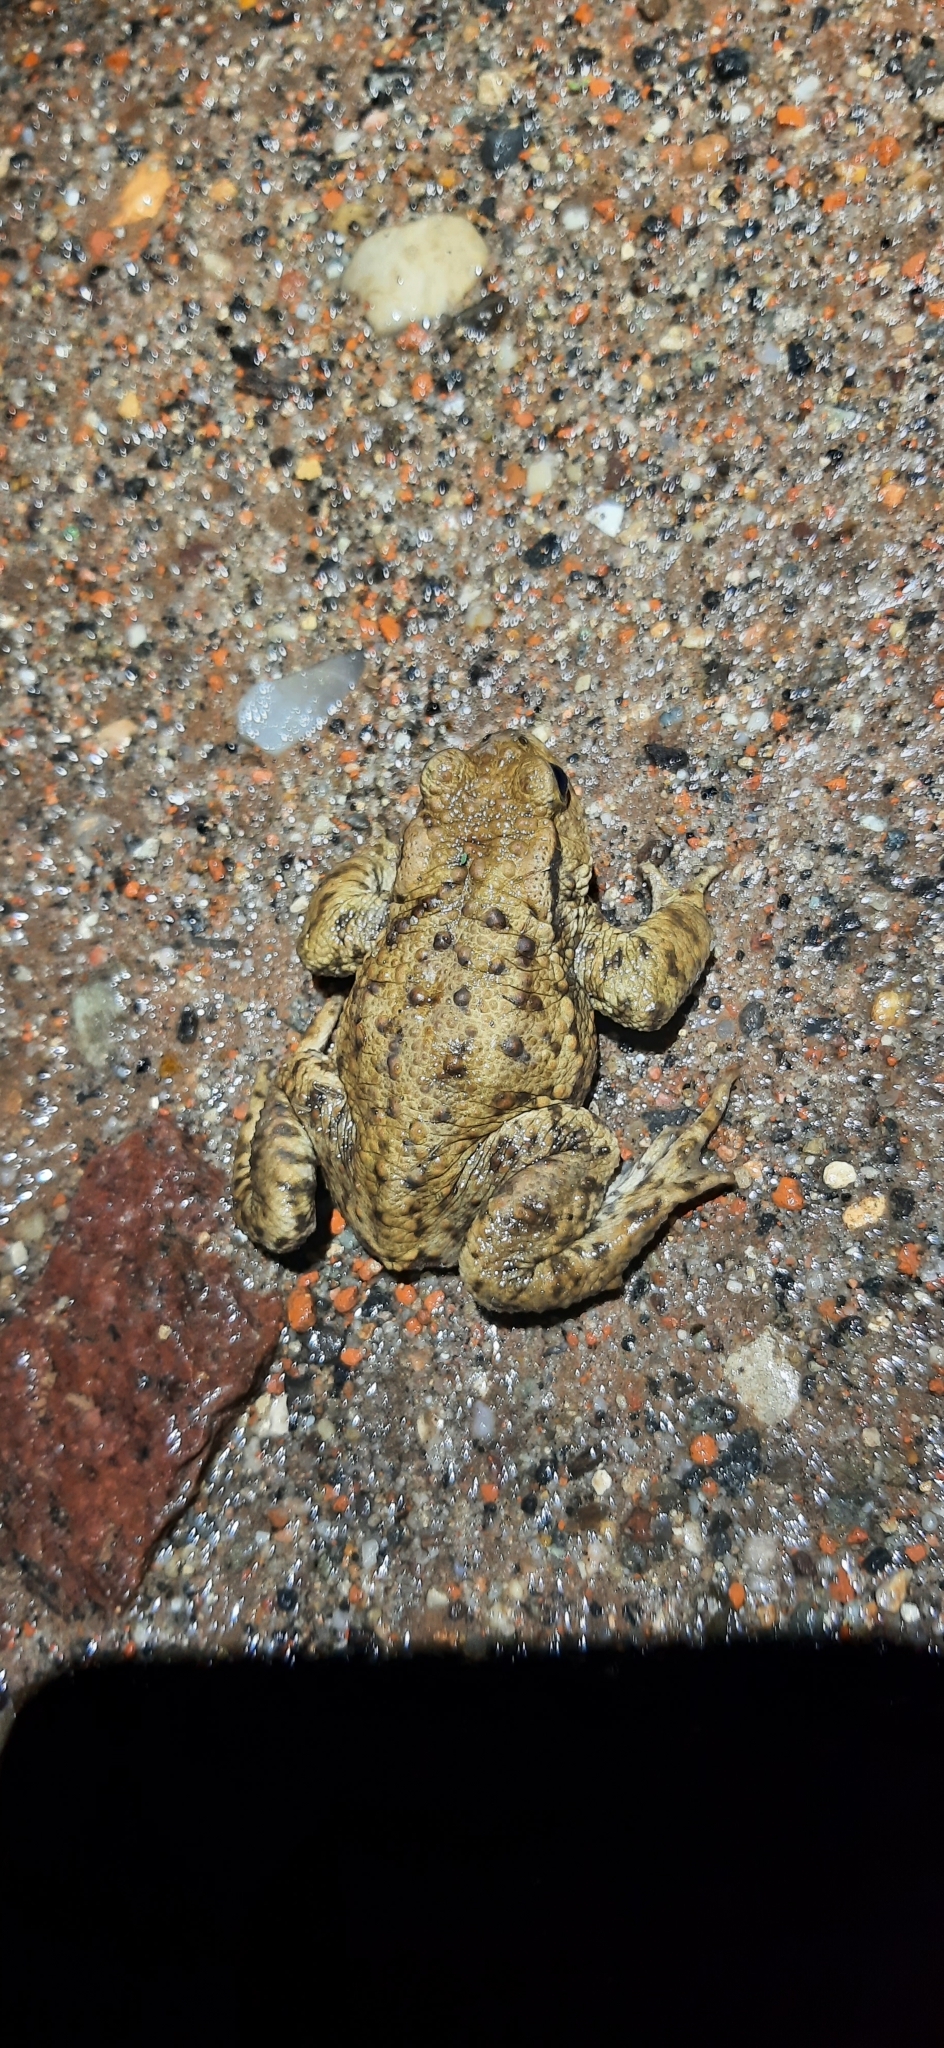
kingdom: Animalia
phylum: Chordata
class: Amphibia
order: Anura
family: Bufonidae
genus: Bufo
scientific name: Bufo bufo
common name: Common toad
